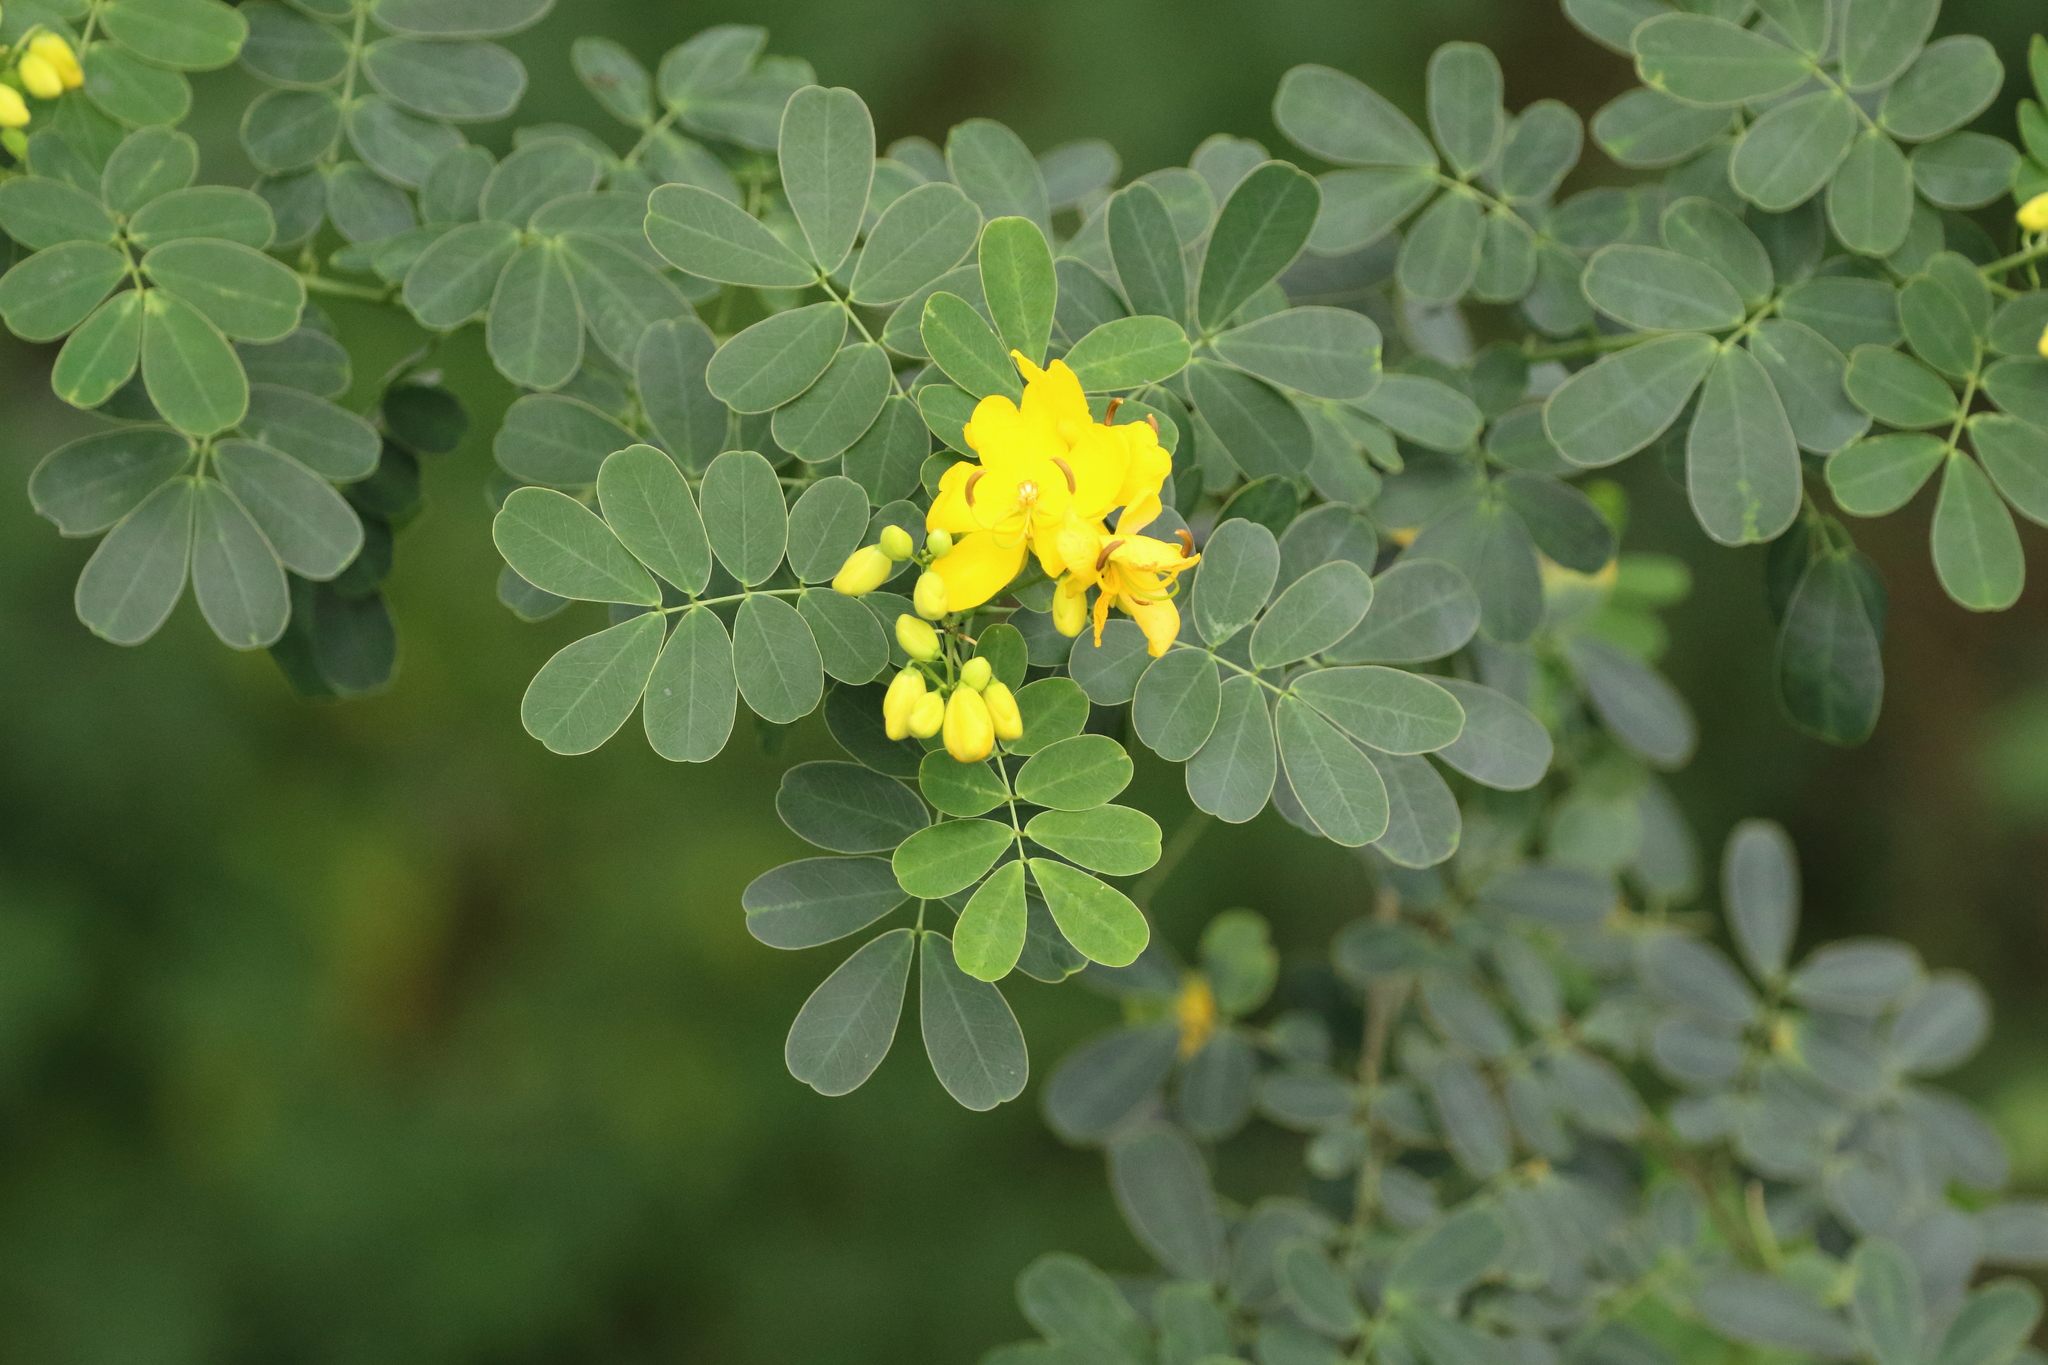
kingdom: Plantae
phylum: Tracheophyta
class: Magnoliopsida
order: Fabales
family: Fabaceae
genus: Senna
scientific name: Senna pendula
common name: Easter cassia
